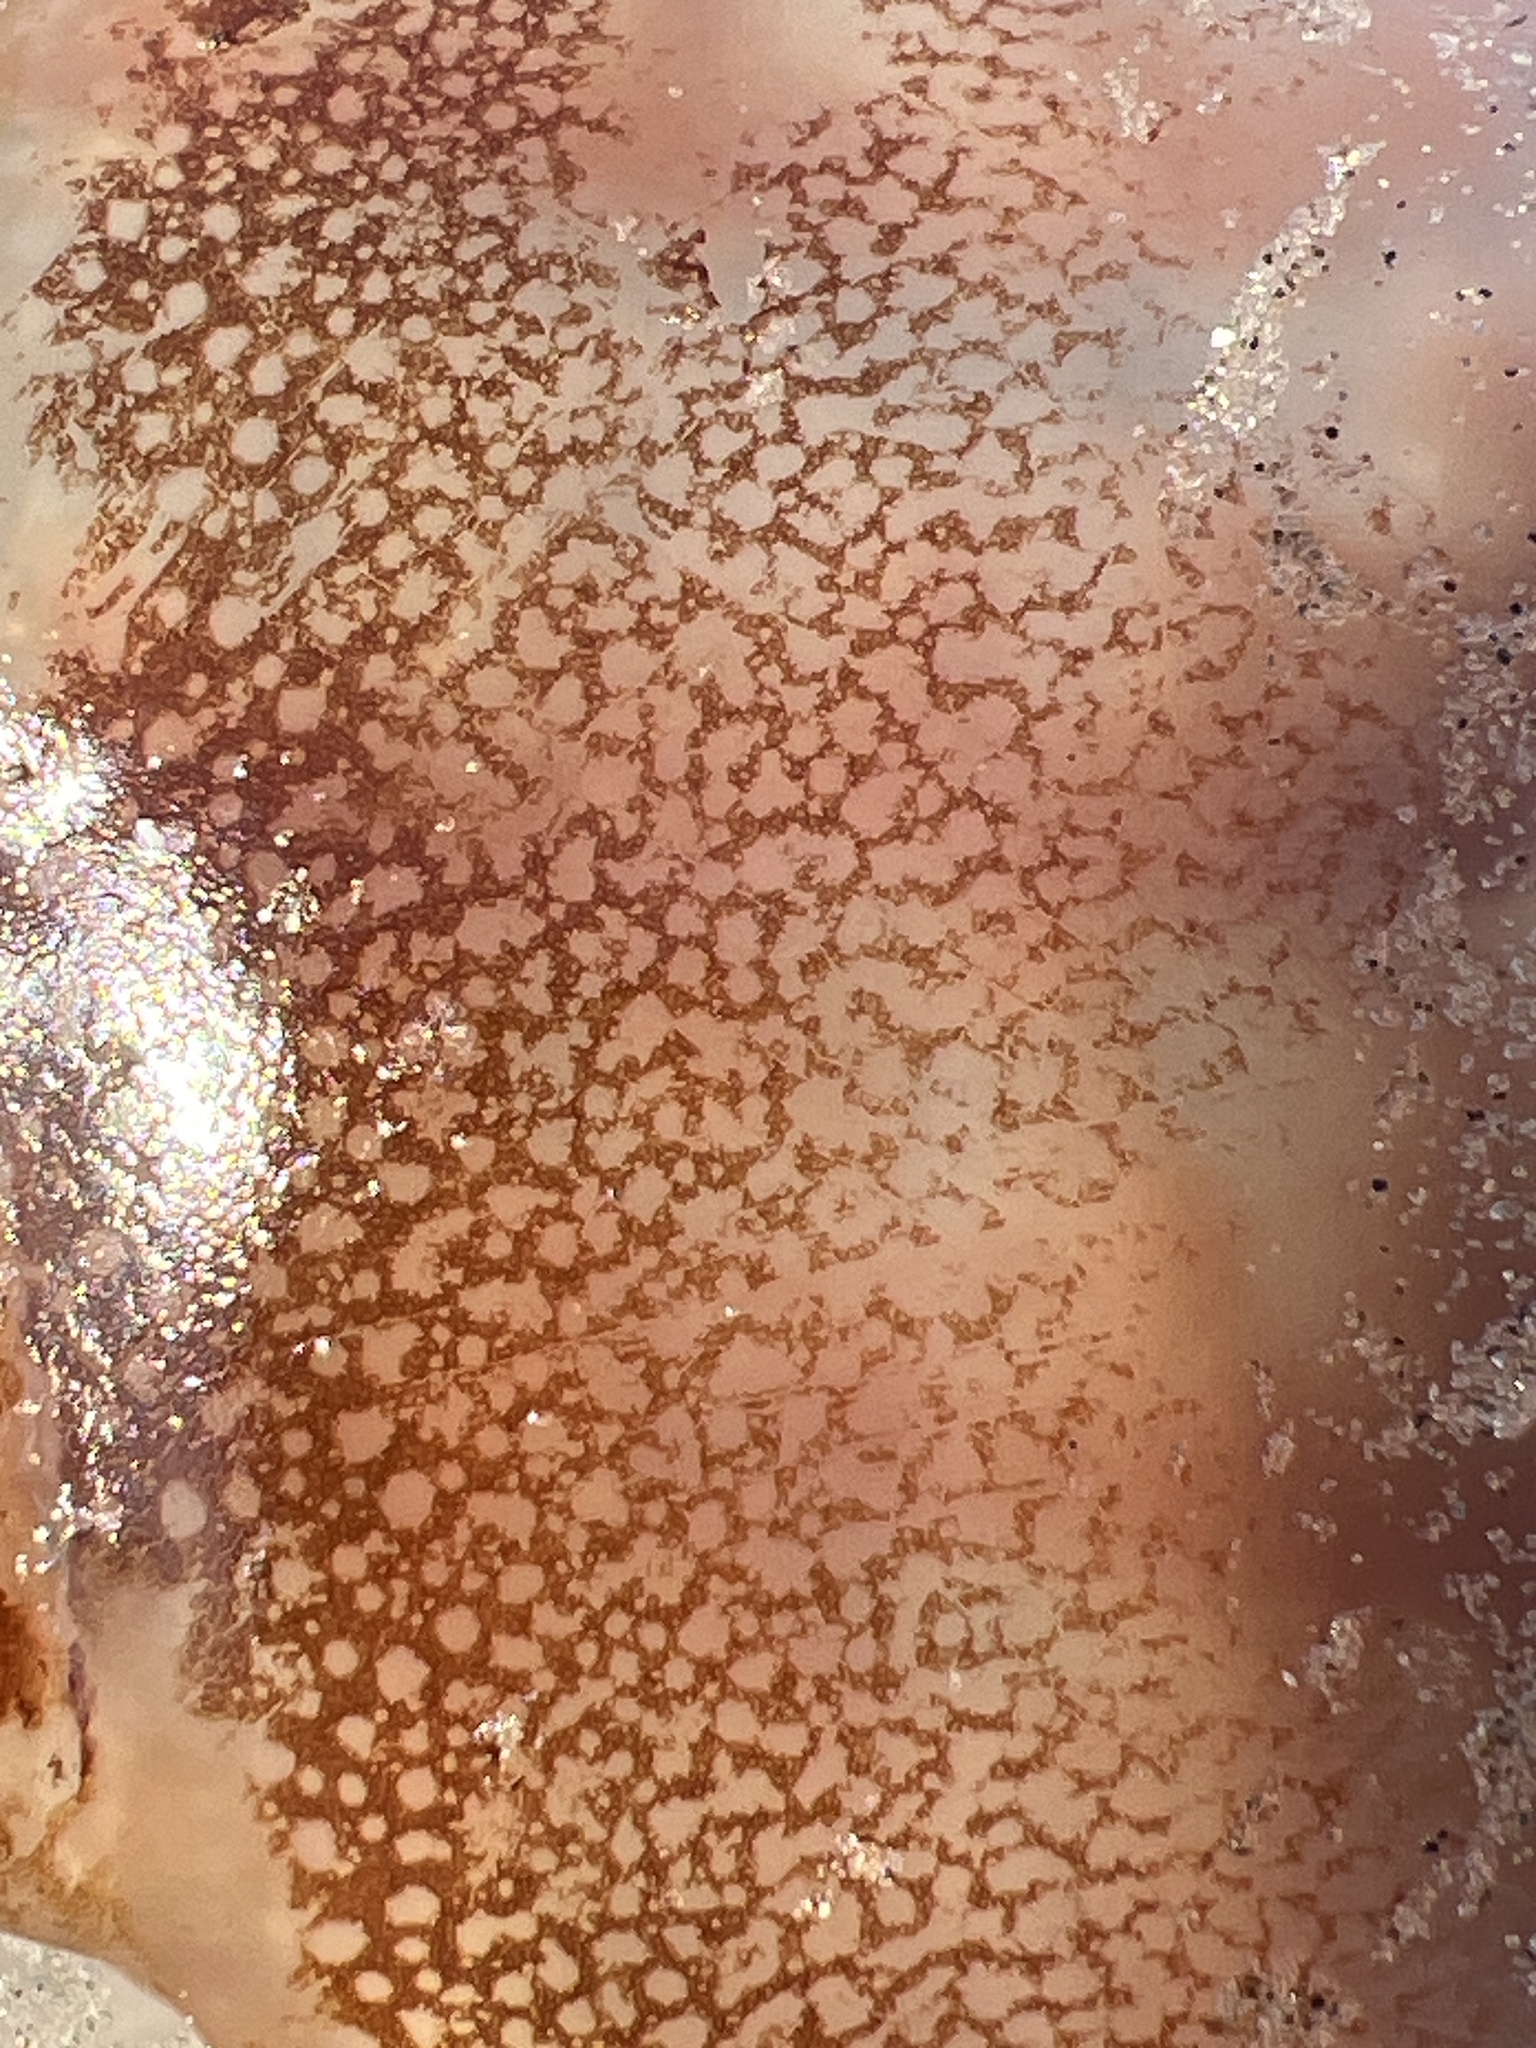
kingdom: Animalia
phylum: Cnidaria
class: Scyphozoa
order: Rhizostomeae
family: Stomolophidae
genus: Stomolophus
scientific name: Stomolophus meleagris
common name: Cabbagehead
